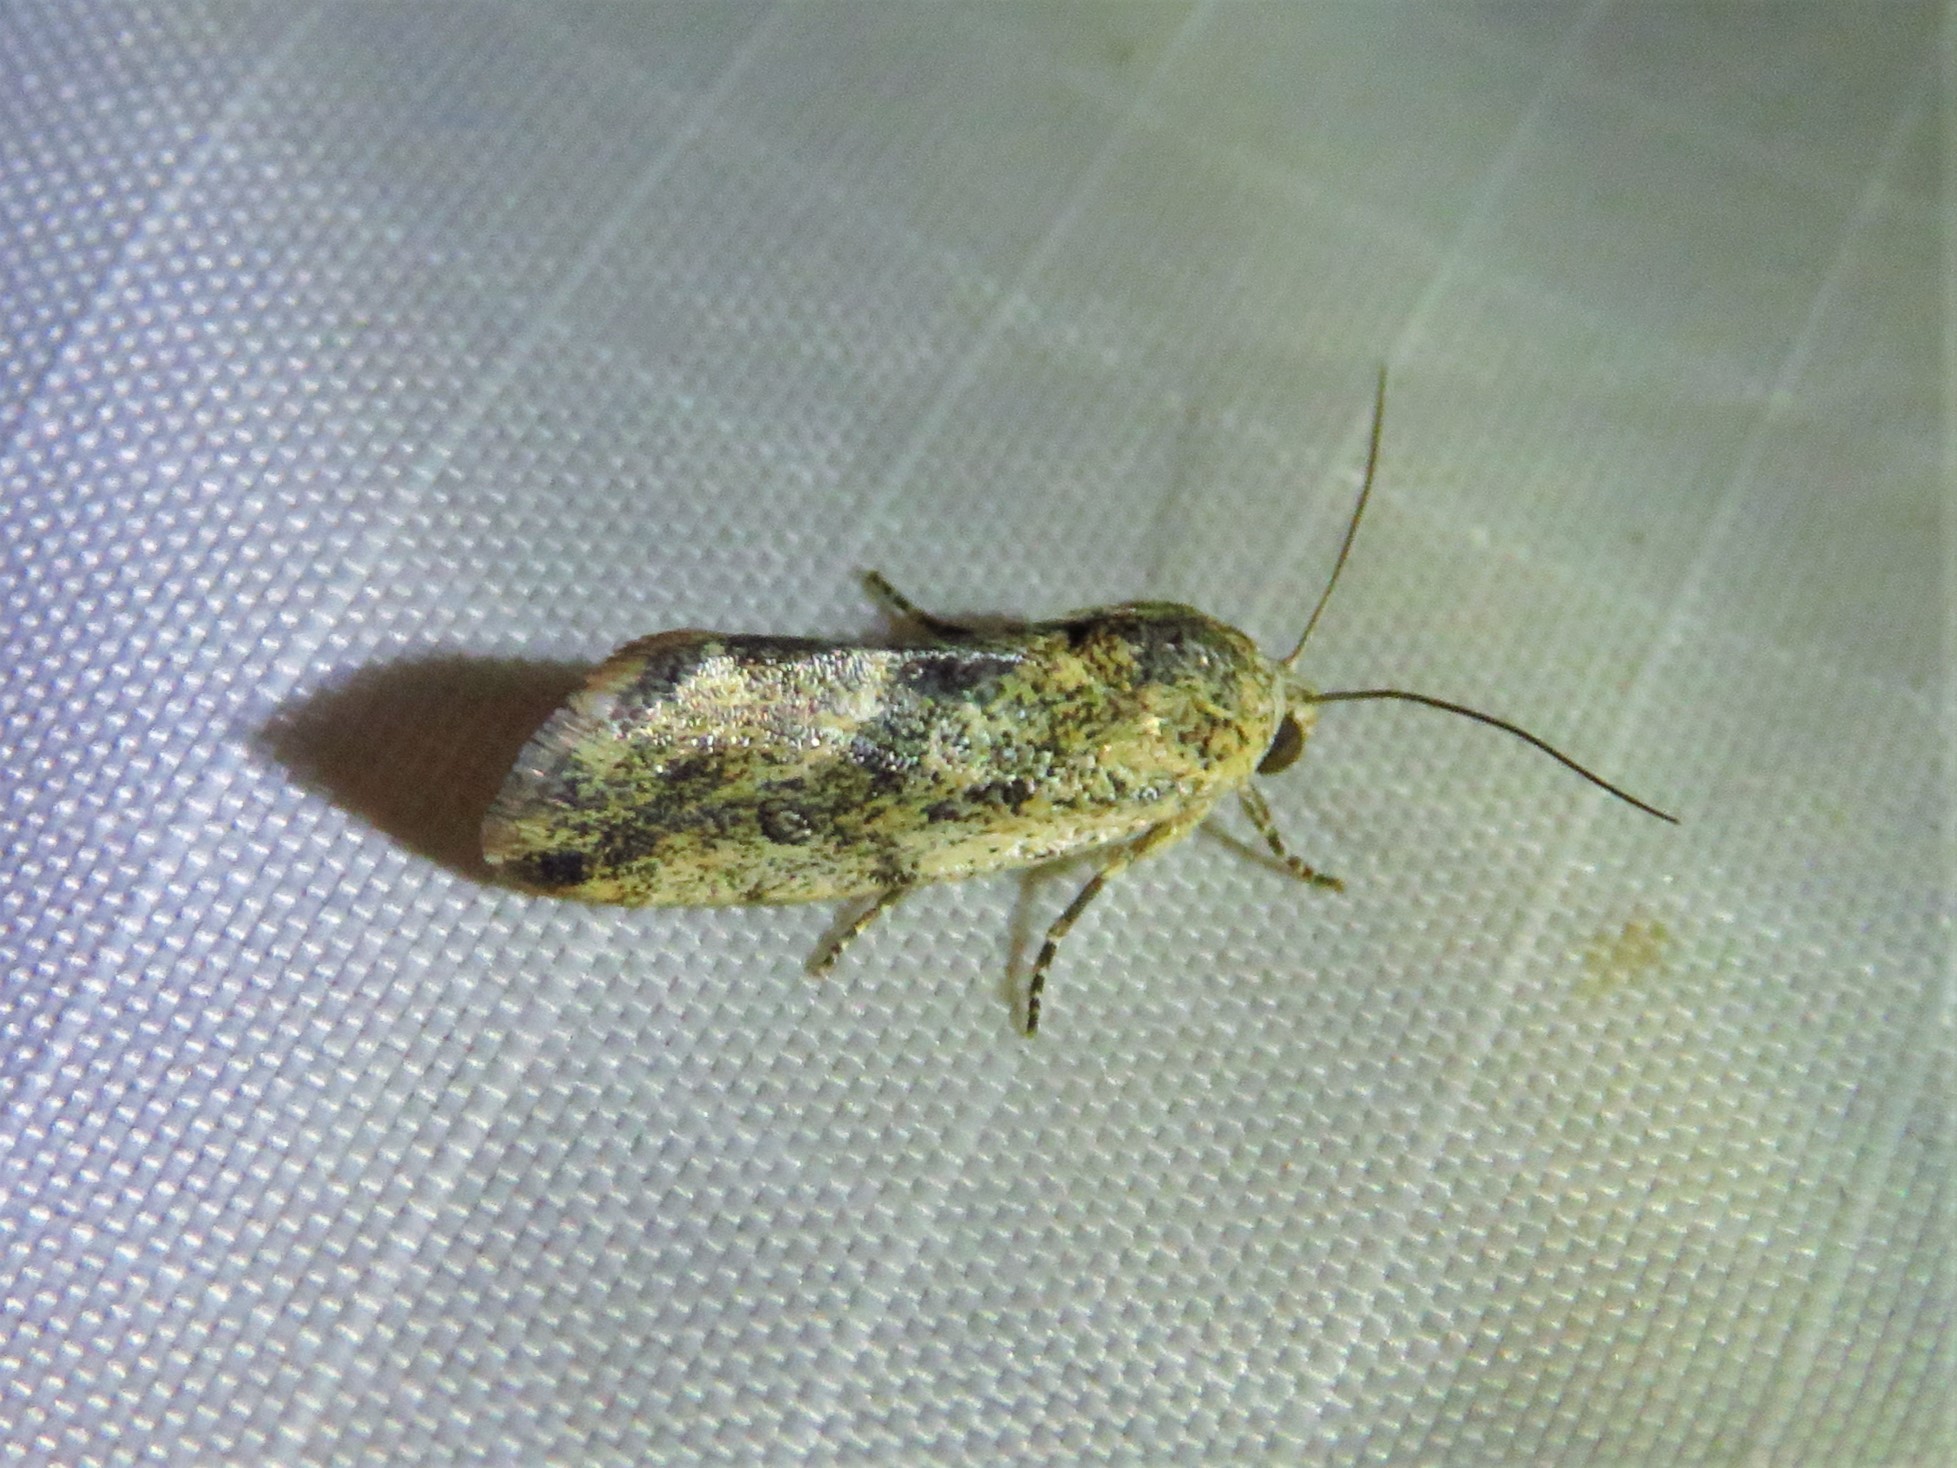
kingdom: Animalia
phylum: Arthropoda
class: Insecta
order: Lepidoptera
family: Noctuidae
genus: Acontia
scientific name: Acontia fasciatella
